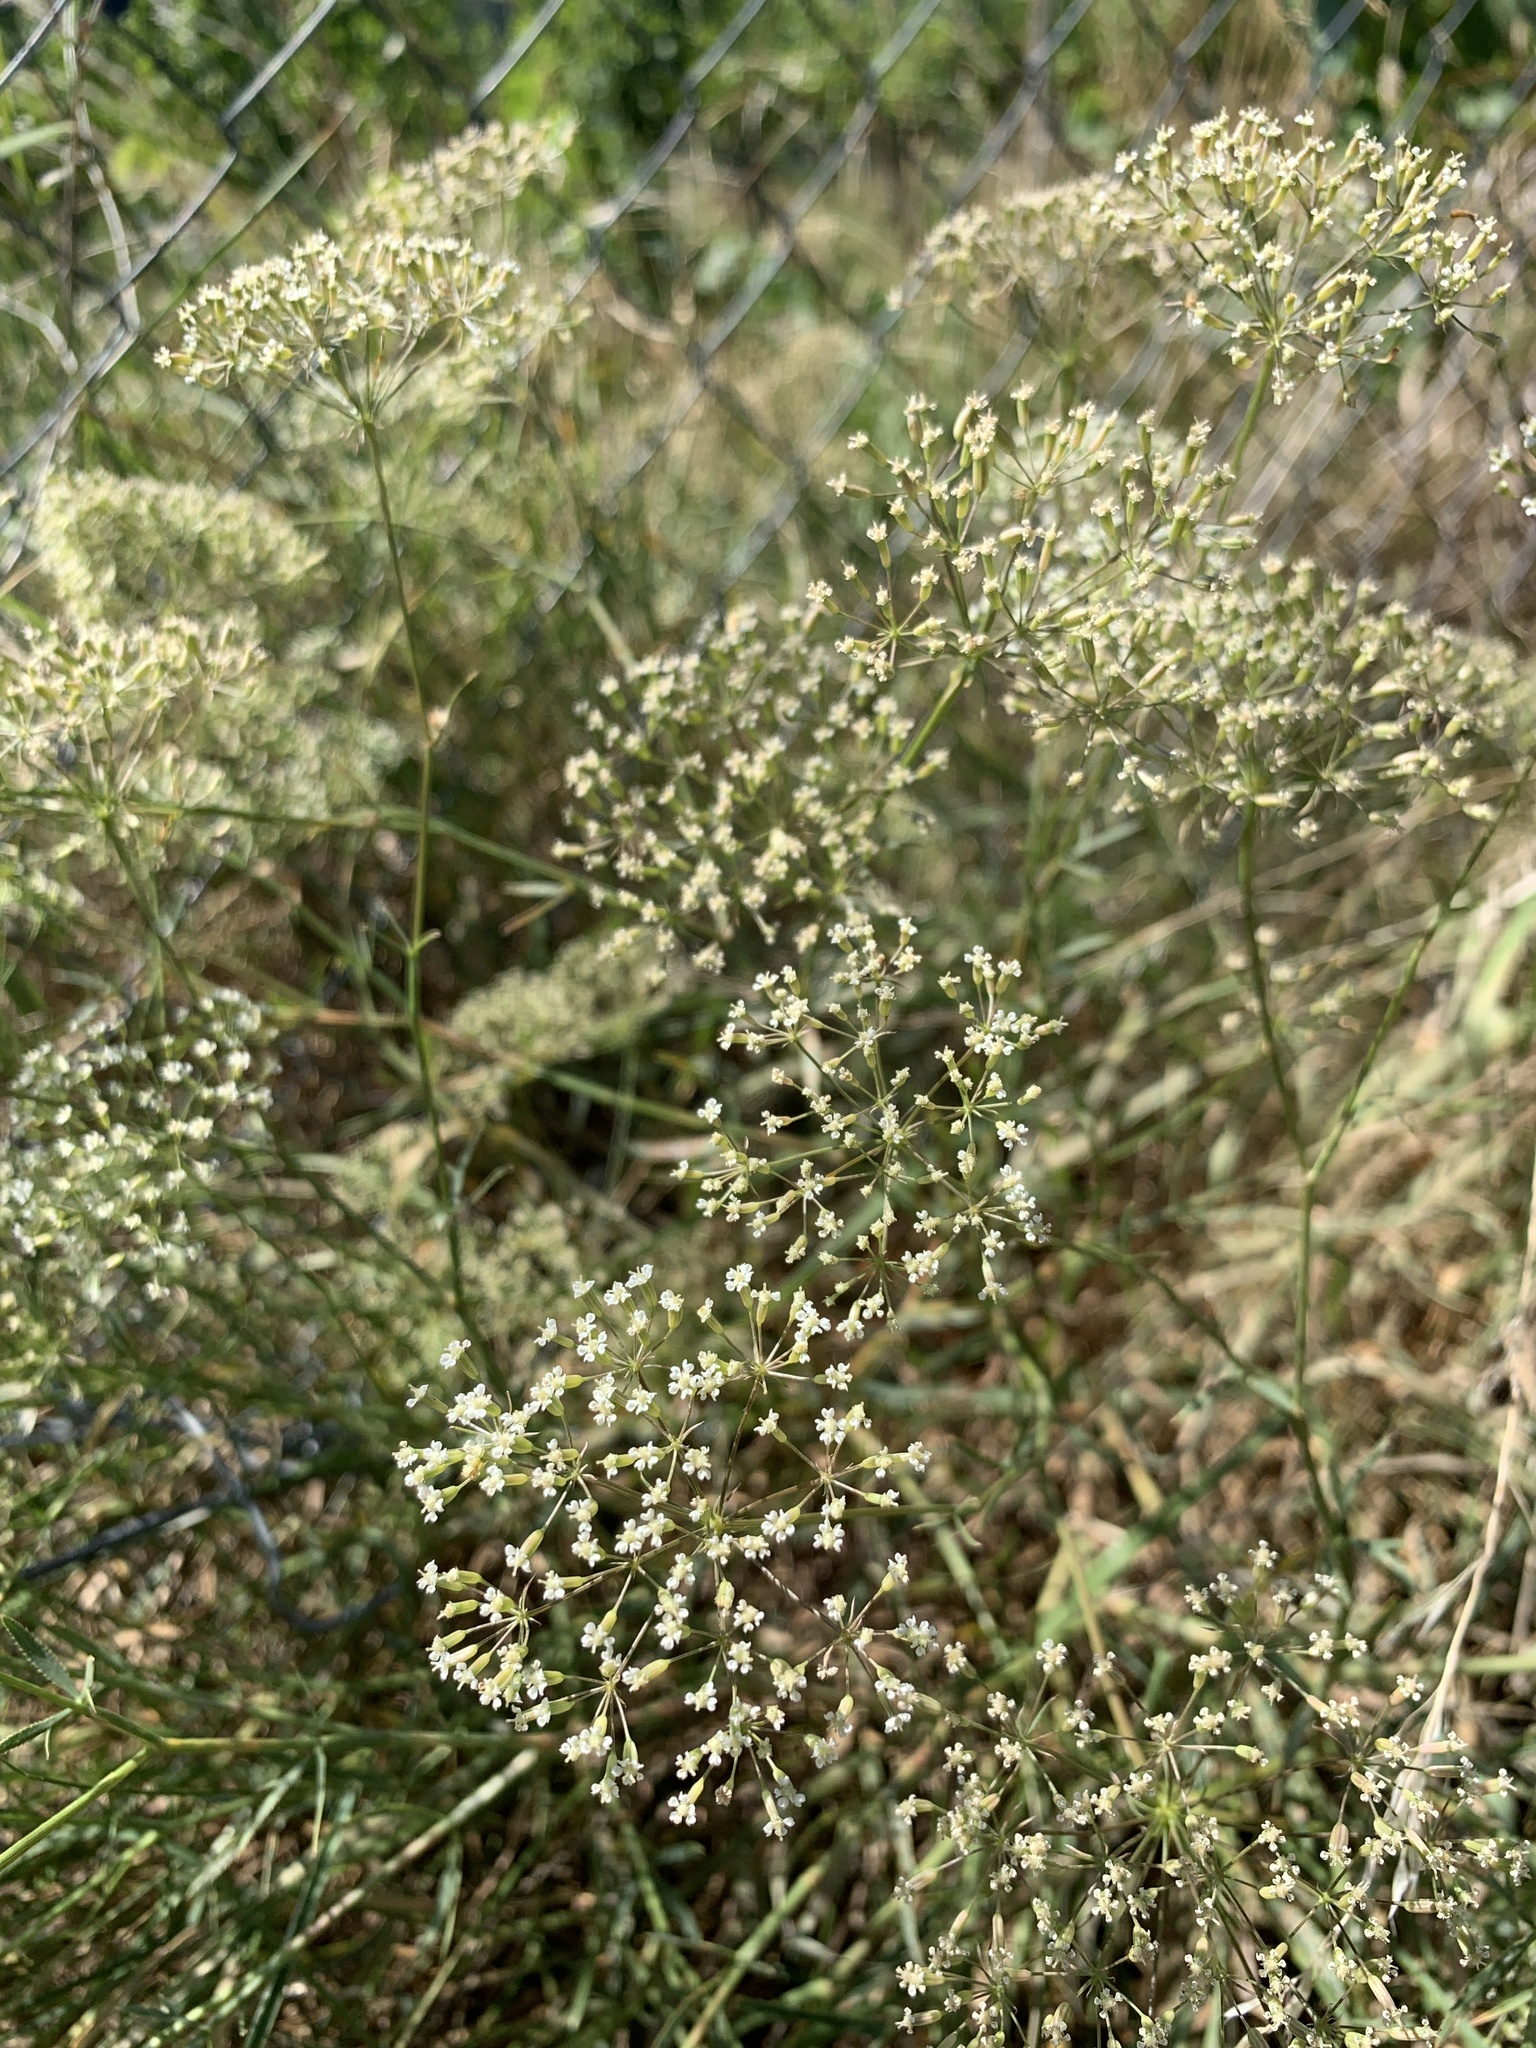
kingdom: Plantae
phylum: Tracheophyta
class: Magnoliopsida
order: Apiales
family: Apiaceae
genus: Falcaria
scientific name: Falcaria vulgaris
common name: Longleaf
